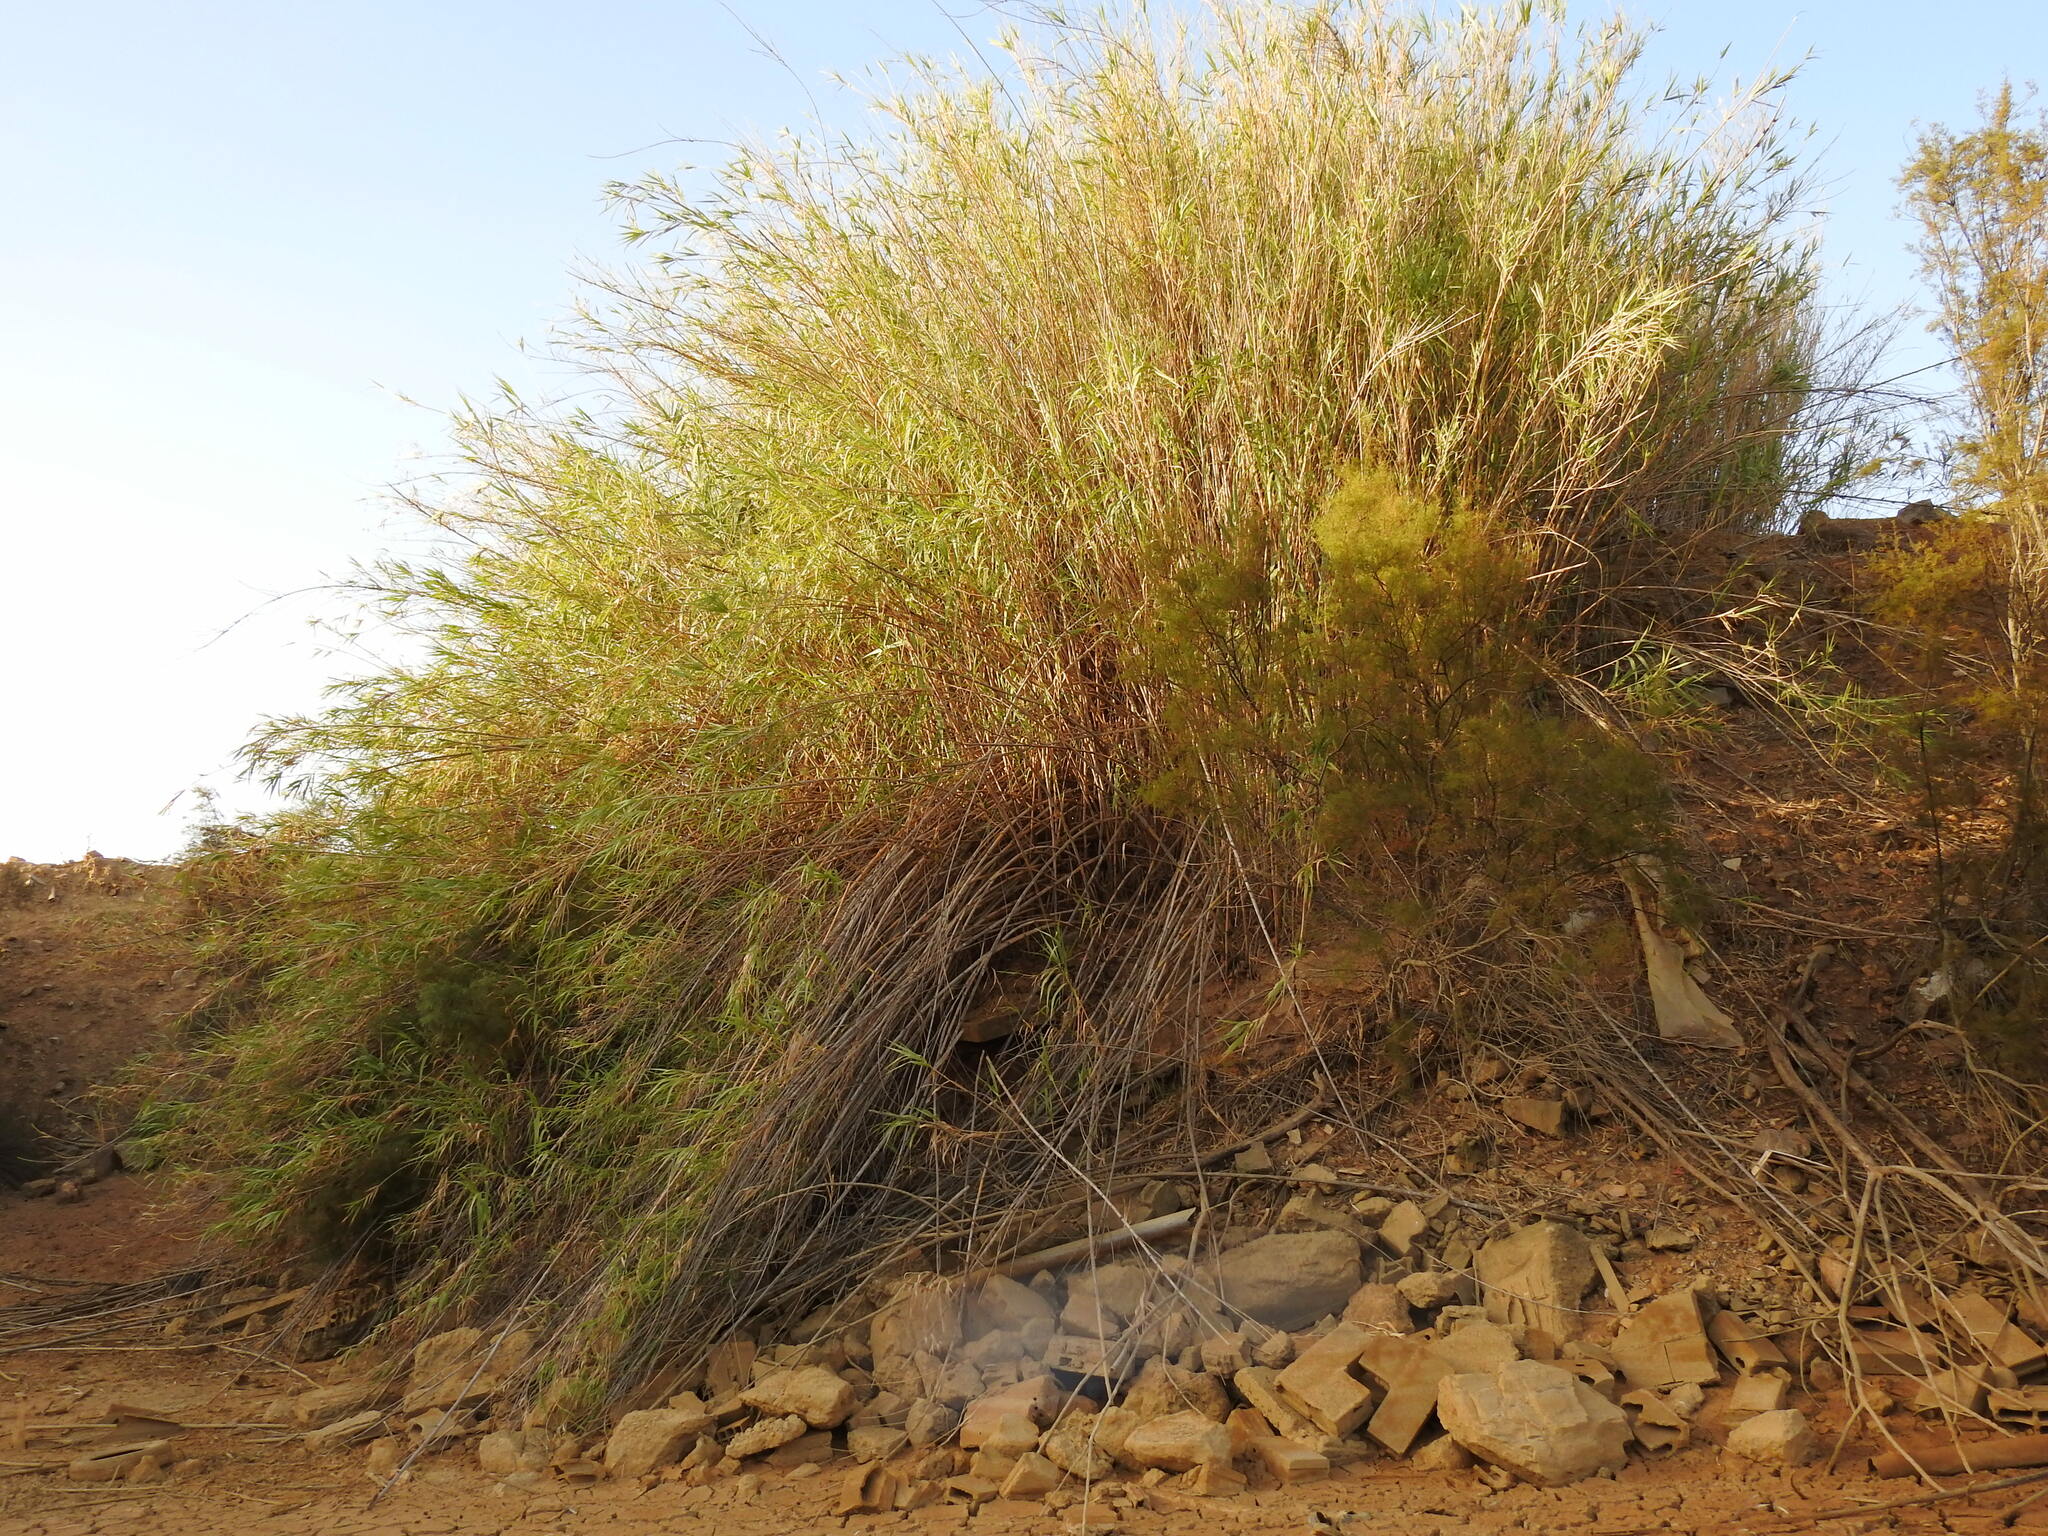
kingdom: Plantae
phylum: Tracheophyta
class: Liliopsida
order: Poales
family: Poaceae
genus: Arundo
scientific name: Arundo donax
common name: Giant reed
